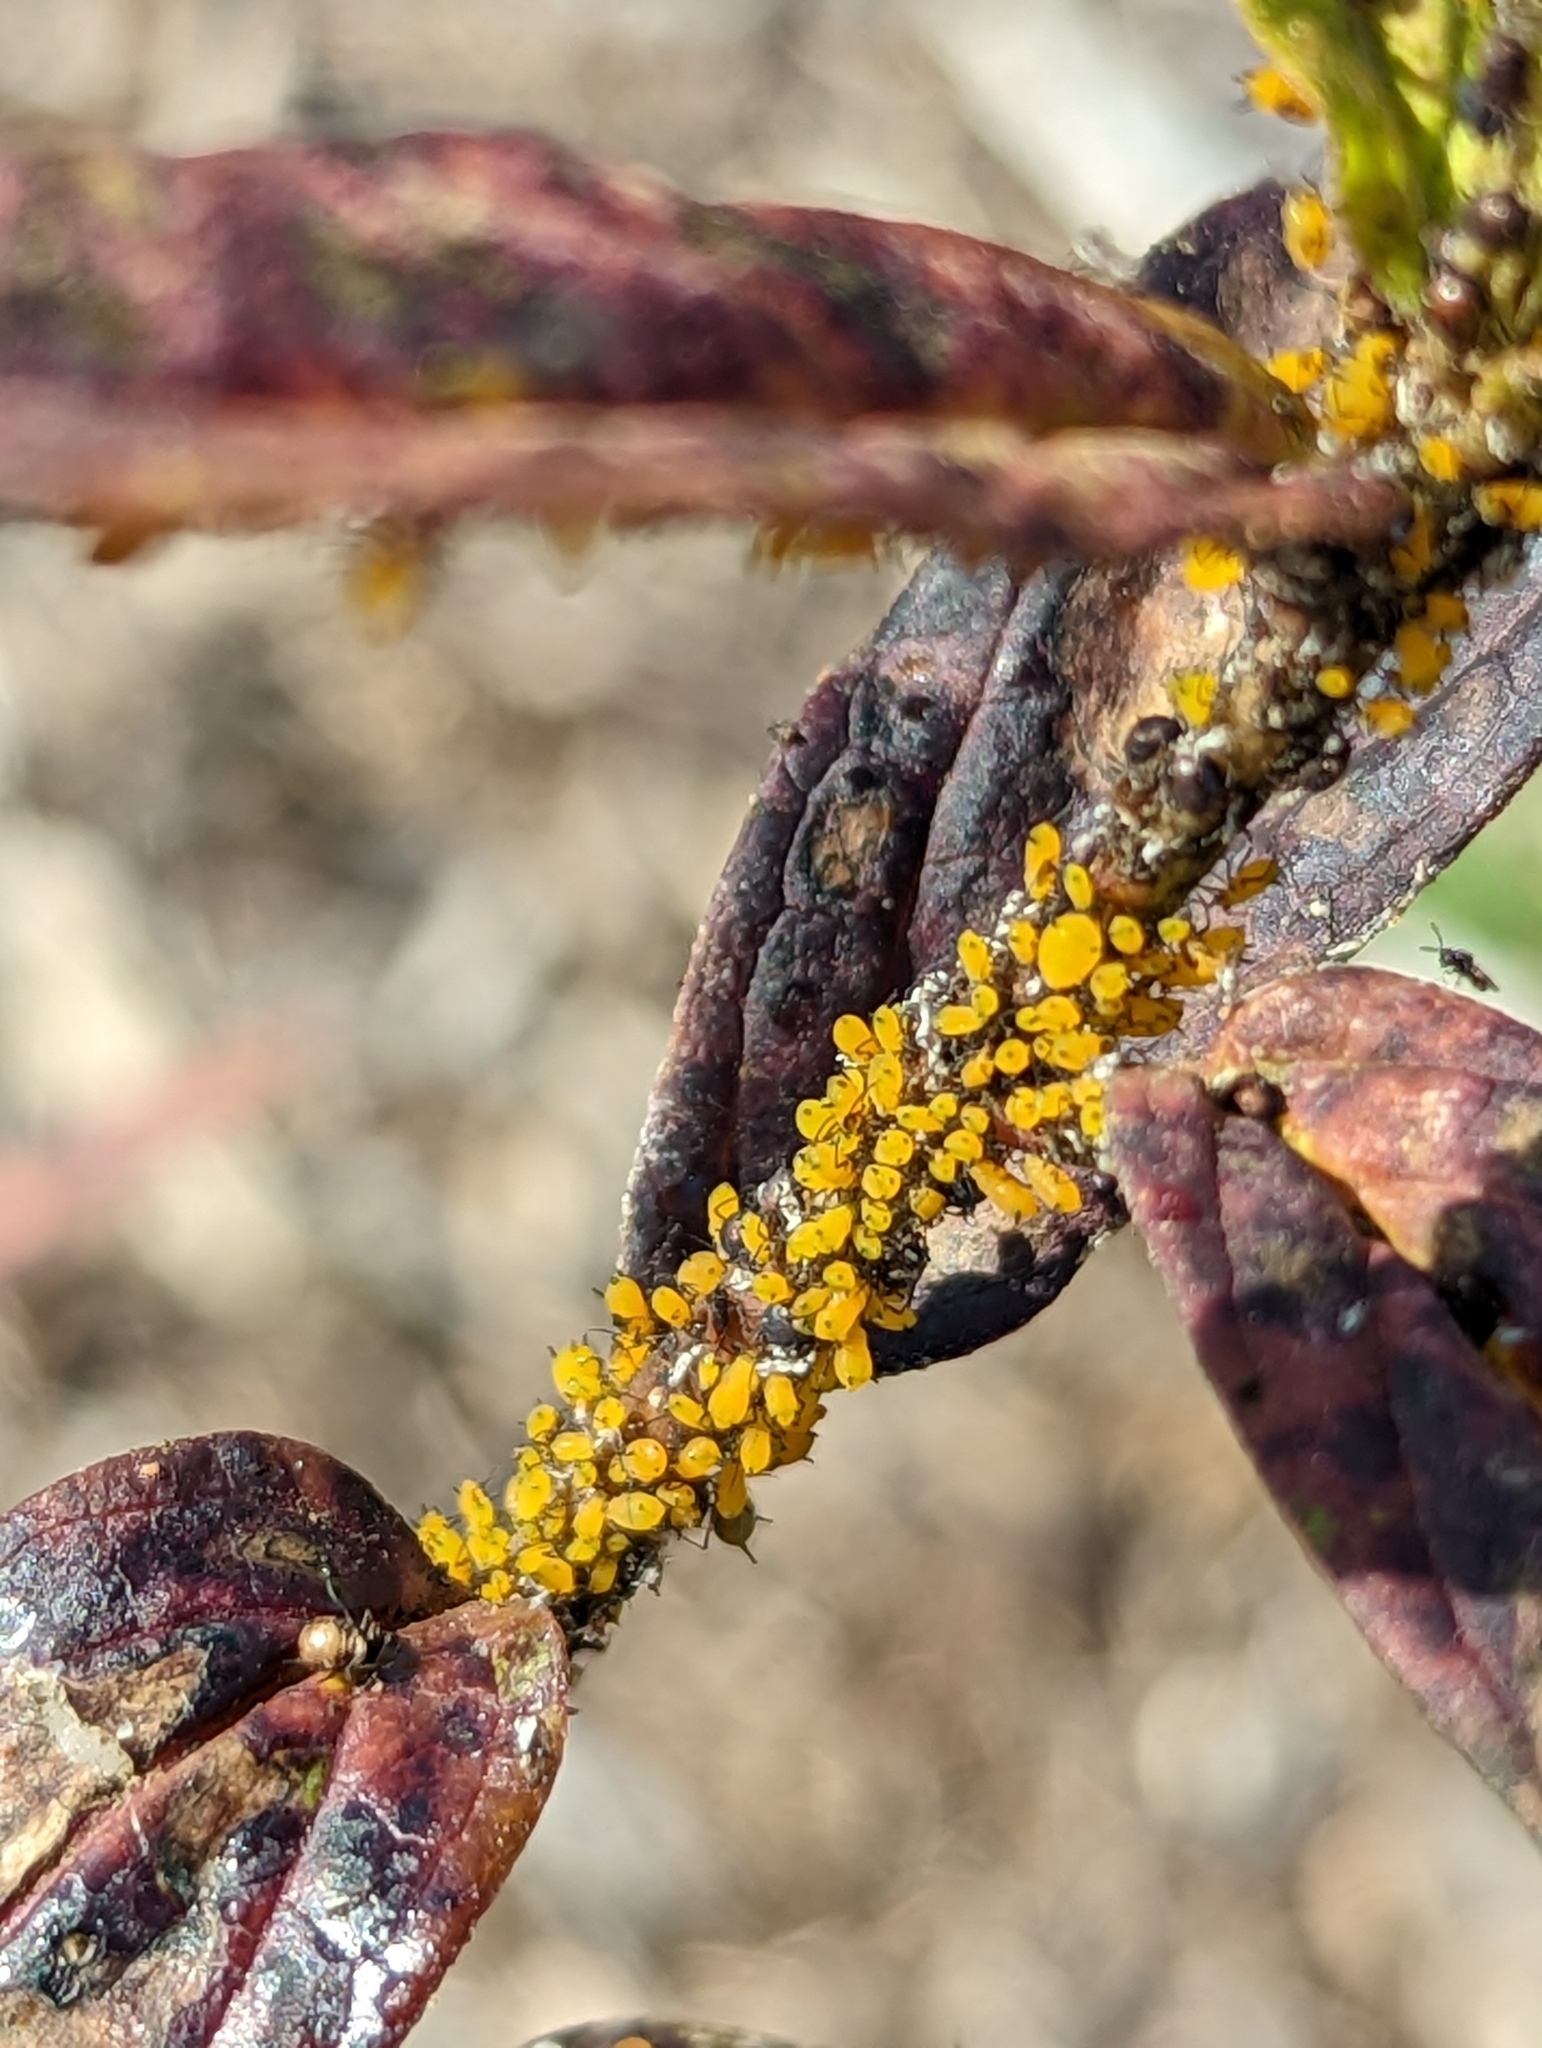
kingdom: Animalia
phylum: Arthropoda
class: Insecta
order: Hemiptera
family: Aphididae
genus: Aphis
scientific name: Aphis nerii
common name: Oleander aphid
